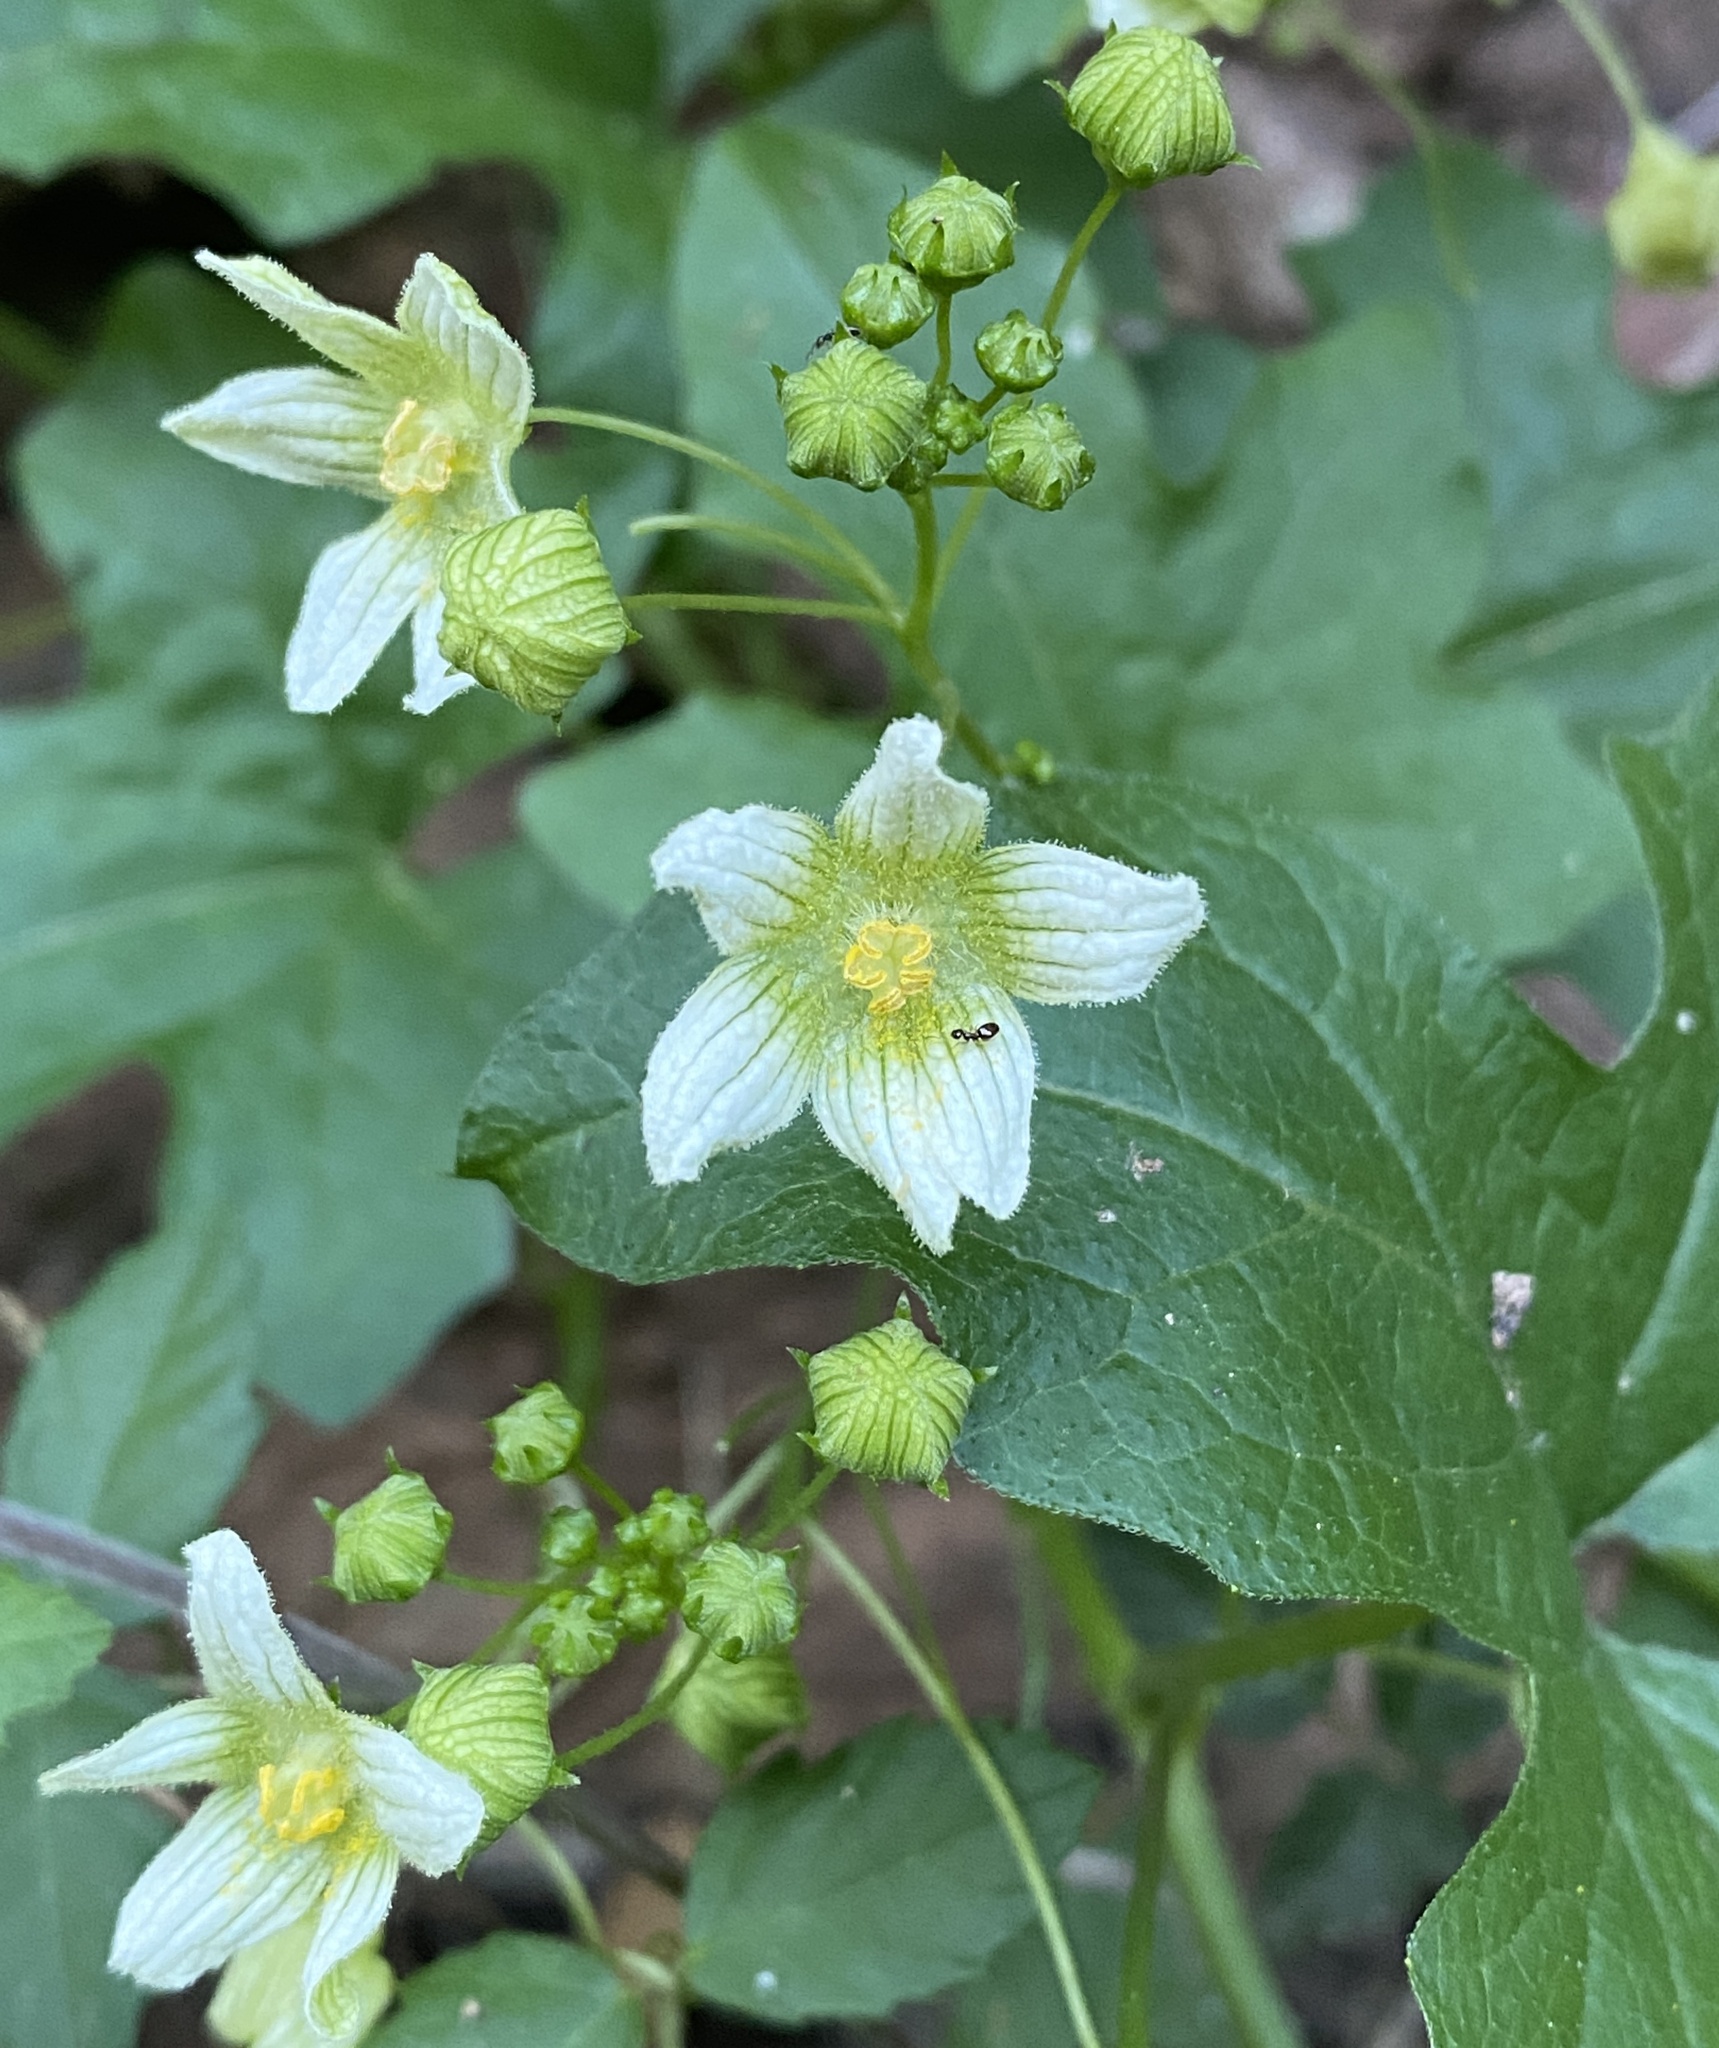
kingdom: Plantae
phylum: Tracheophyta
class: Magnoliopsida
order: Cucurbitales
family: Cucurbitaceae
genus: Bryonia
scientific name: Bryonia cretica
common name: Cretan bryony
